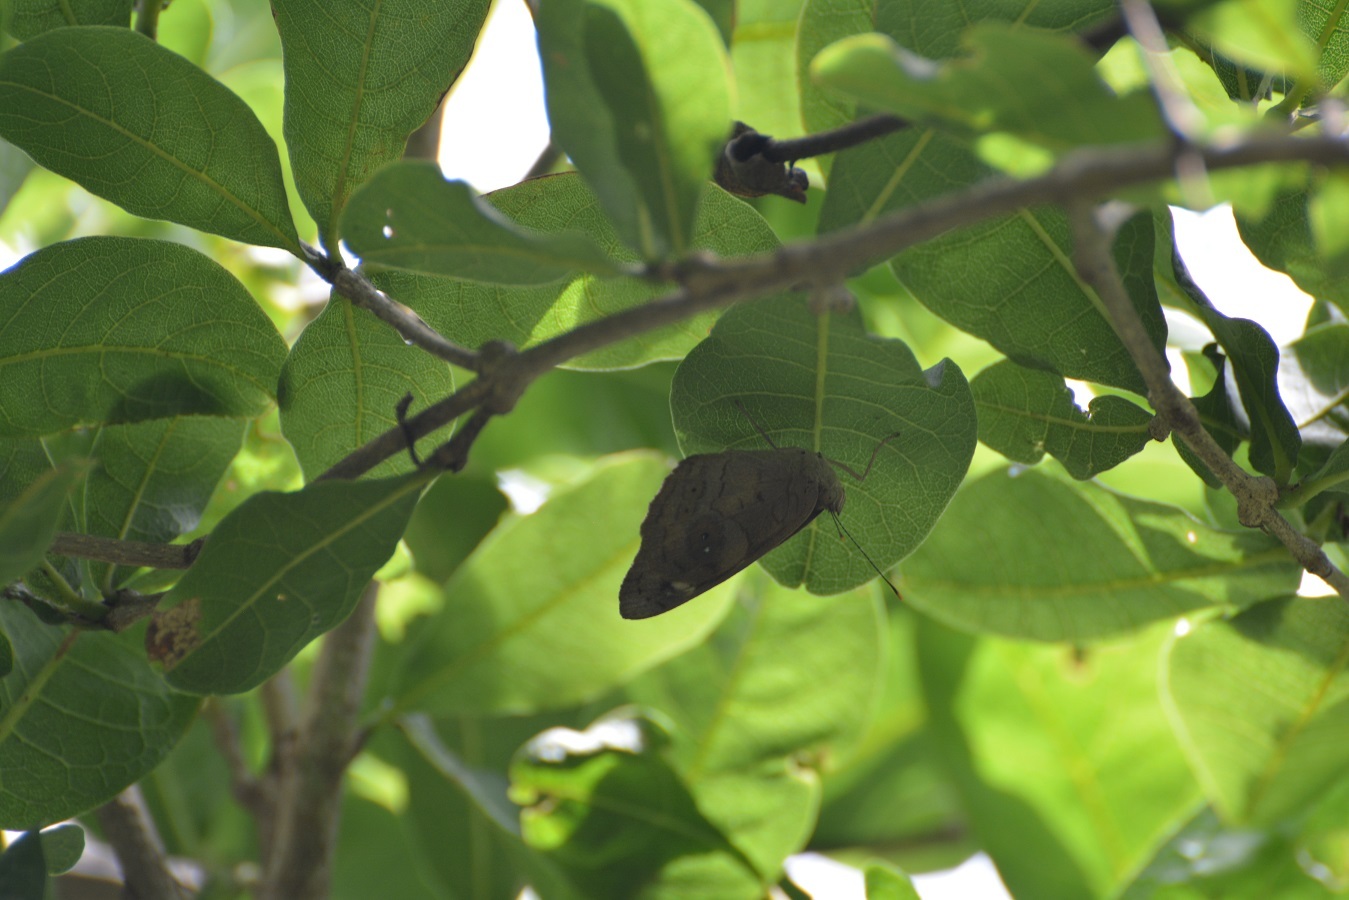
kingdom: Animalia
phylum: Arthropoda
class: Insecta
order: Lepidoptera
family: Nymphalidae
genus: Eunica
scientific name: Eunica monima
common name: Dingy purplewing
